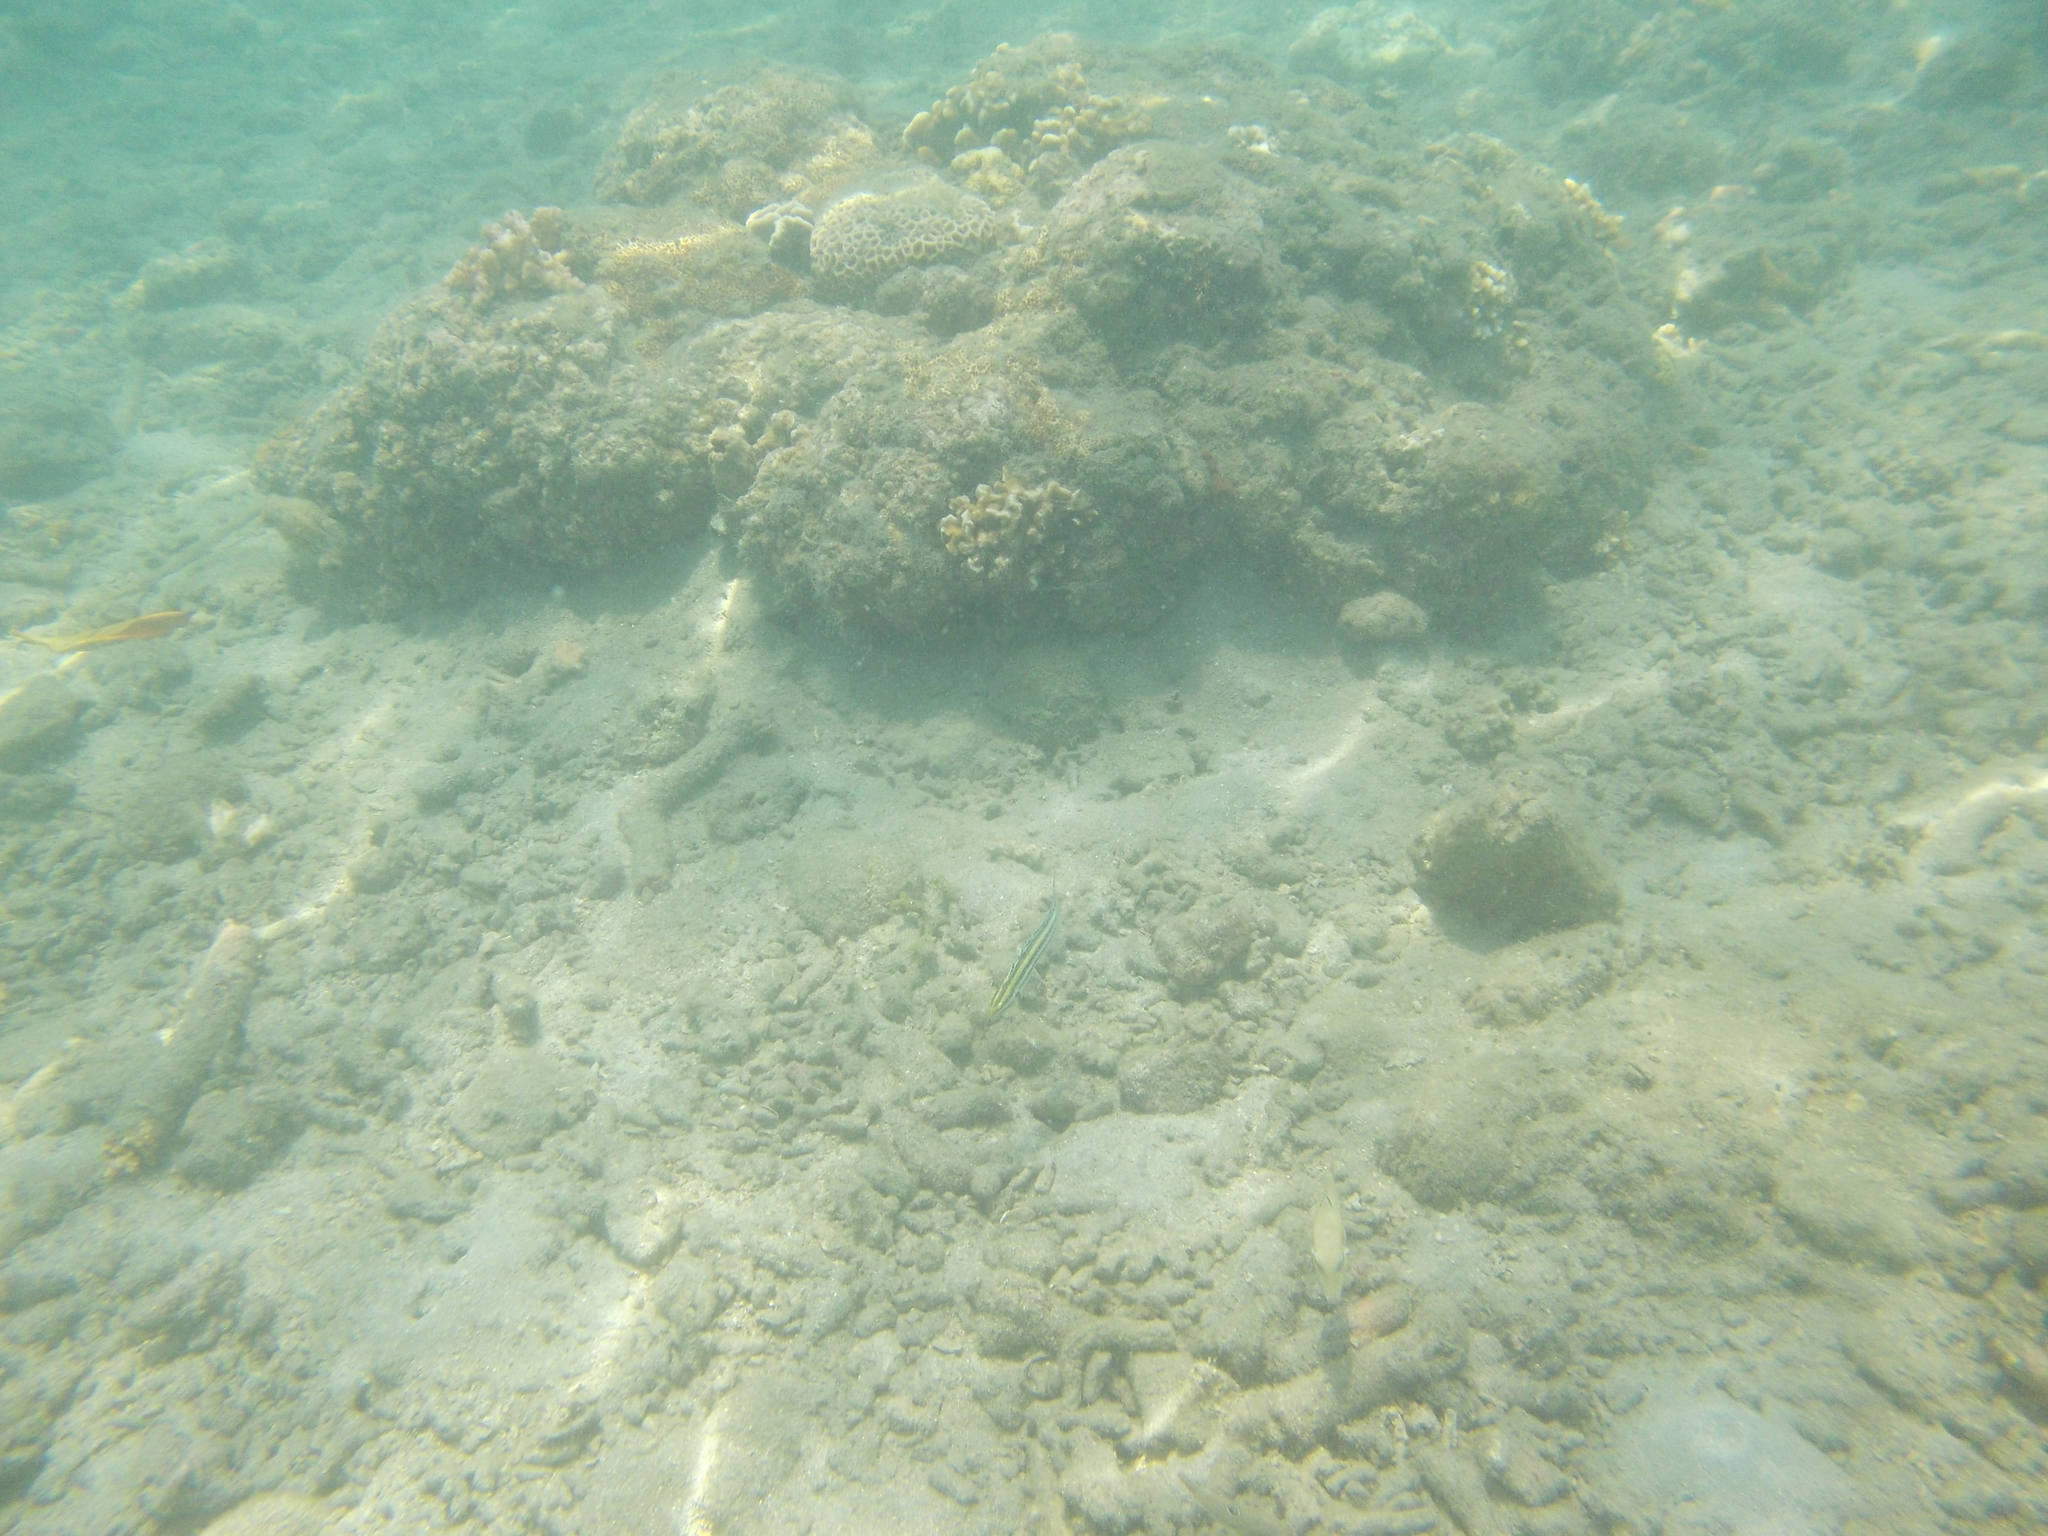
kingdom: Animalia
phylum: Chordata
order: Perciformes
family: Blenniidae
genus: Meiacanthus
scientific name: Meiacanthus grammistes
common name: Grammistes blenny
